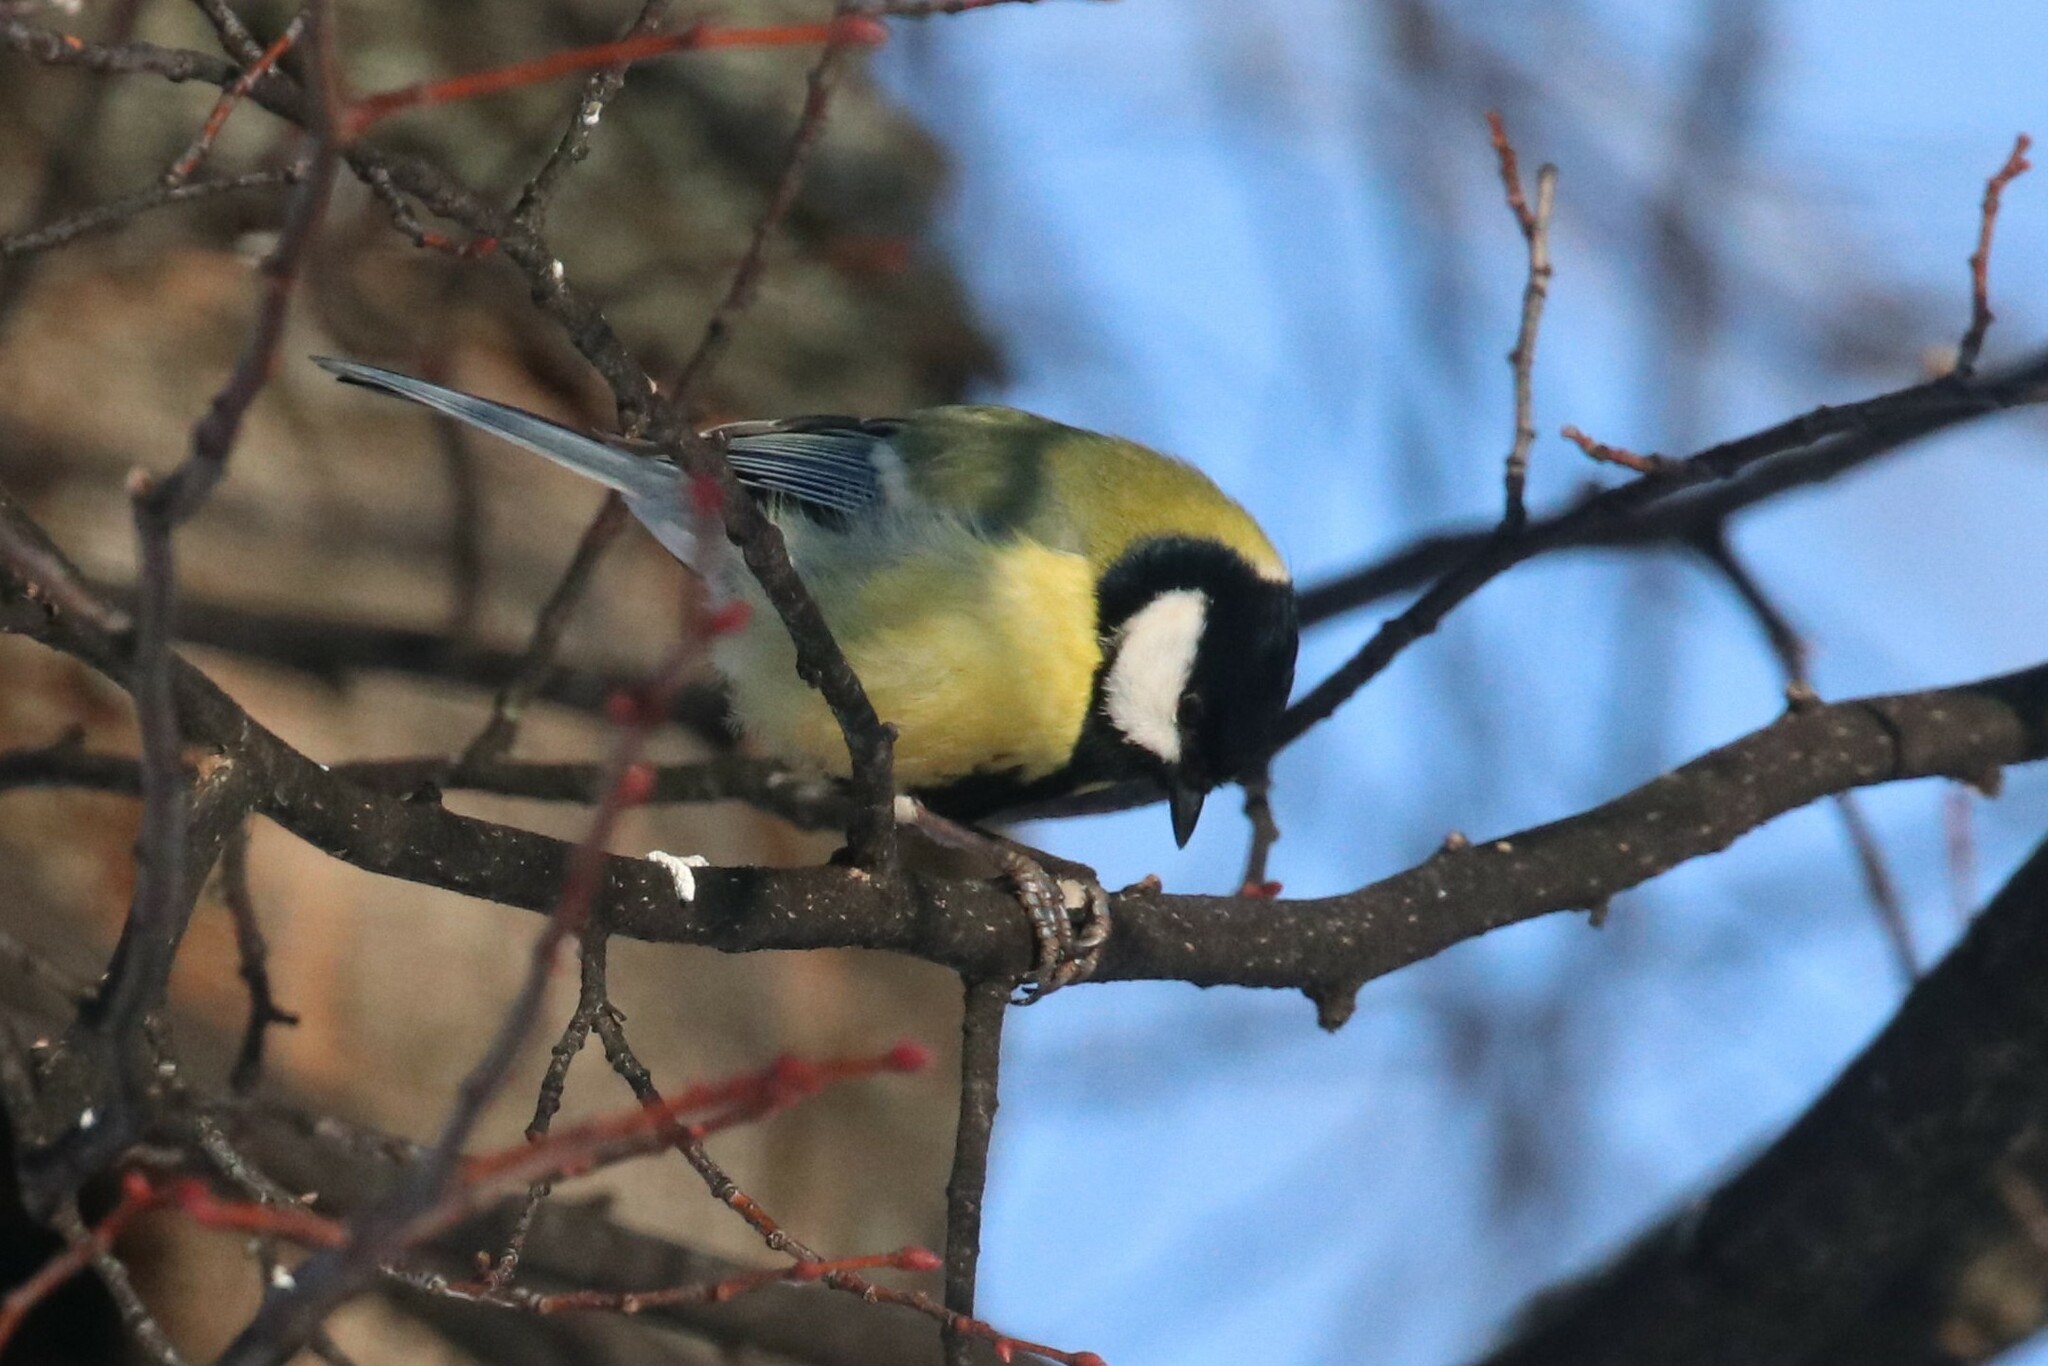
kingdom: Animalia
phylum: Chordata
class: Aves
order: Passeriformes
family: Paridae
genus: Parus
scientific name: Parus major
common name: Great tit
